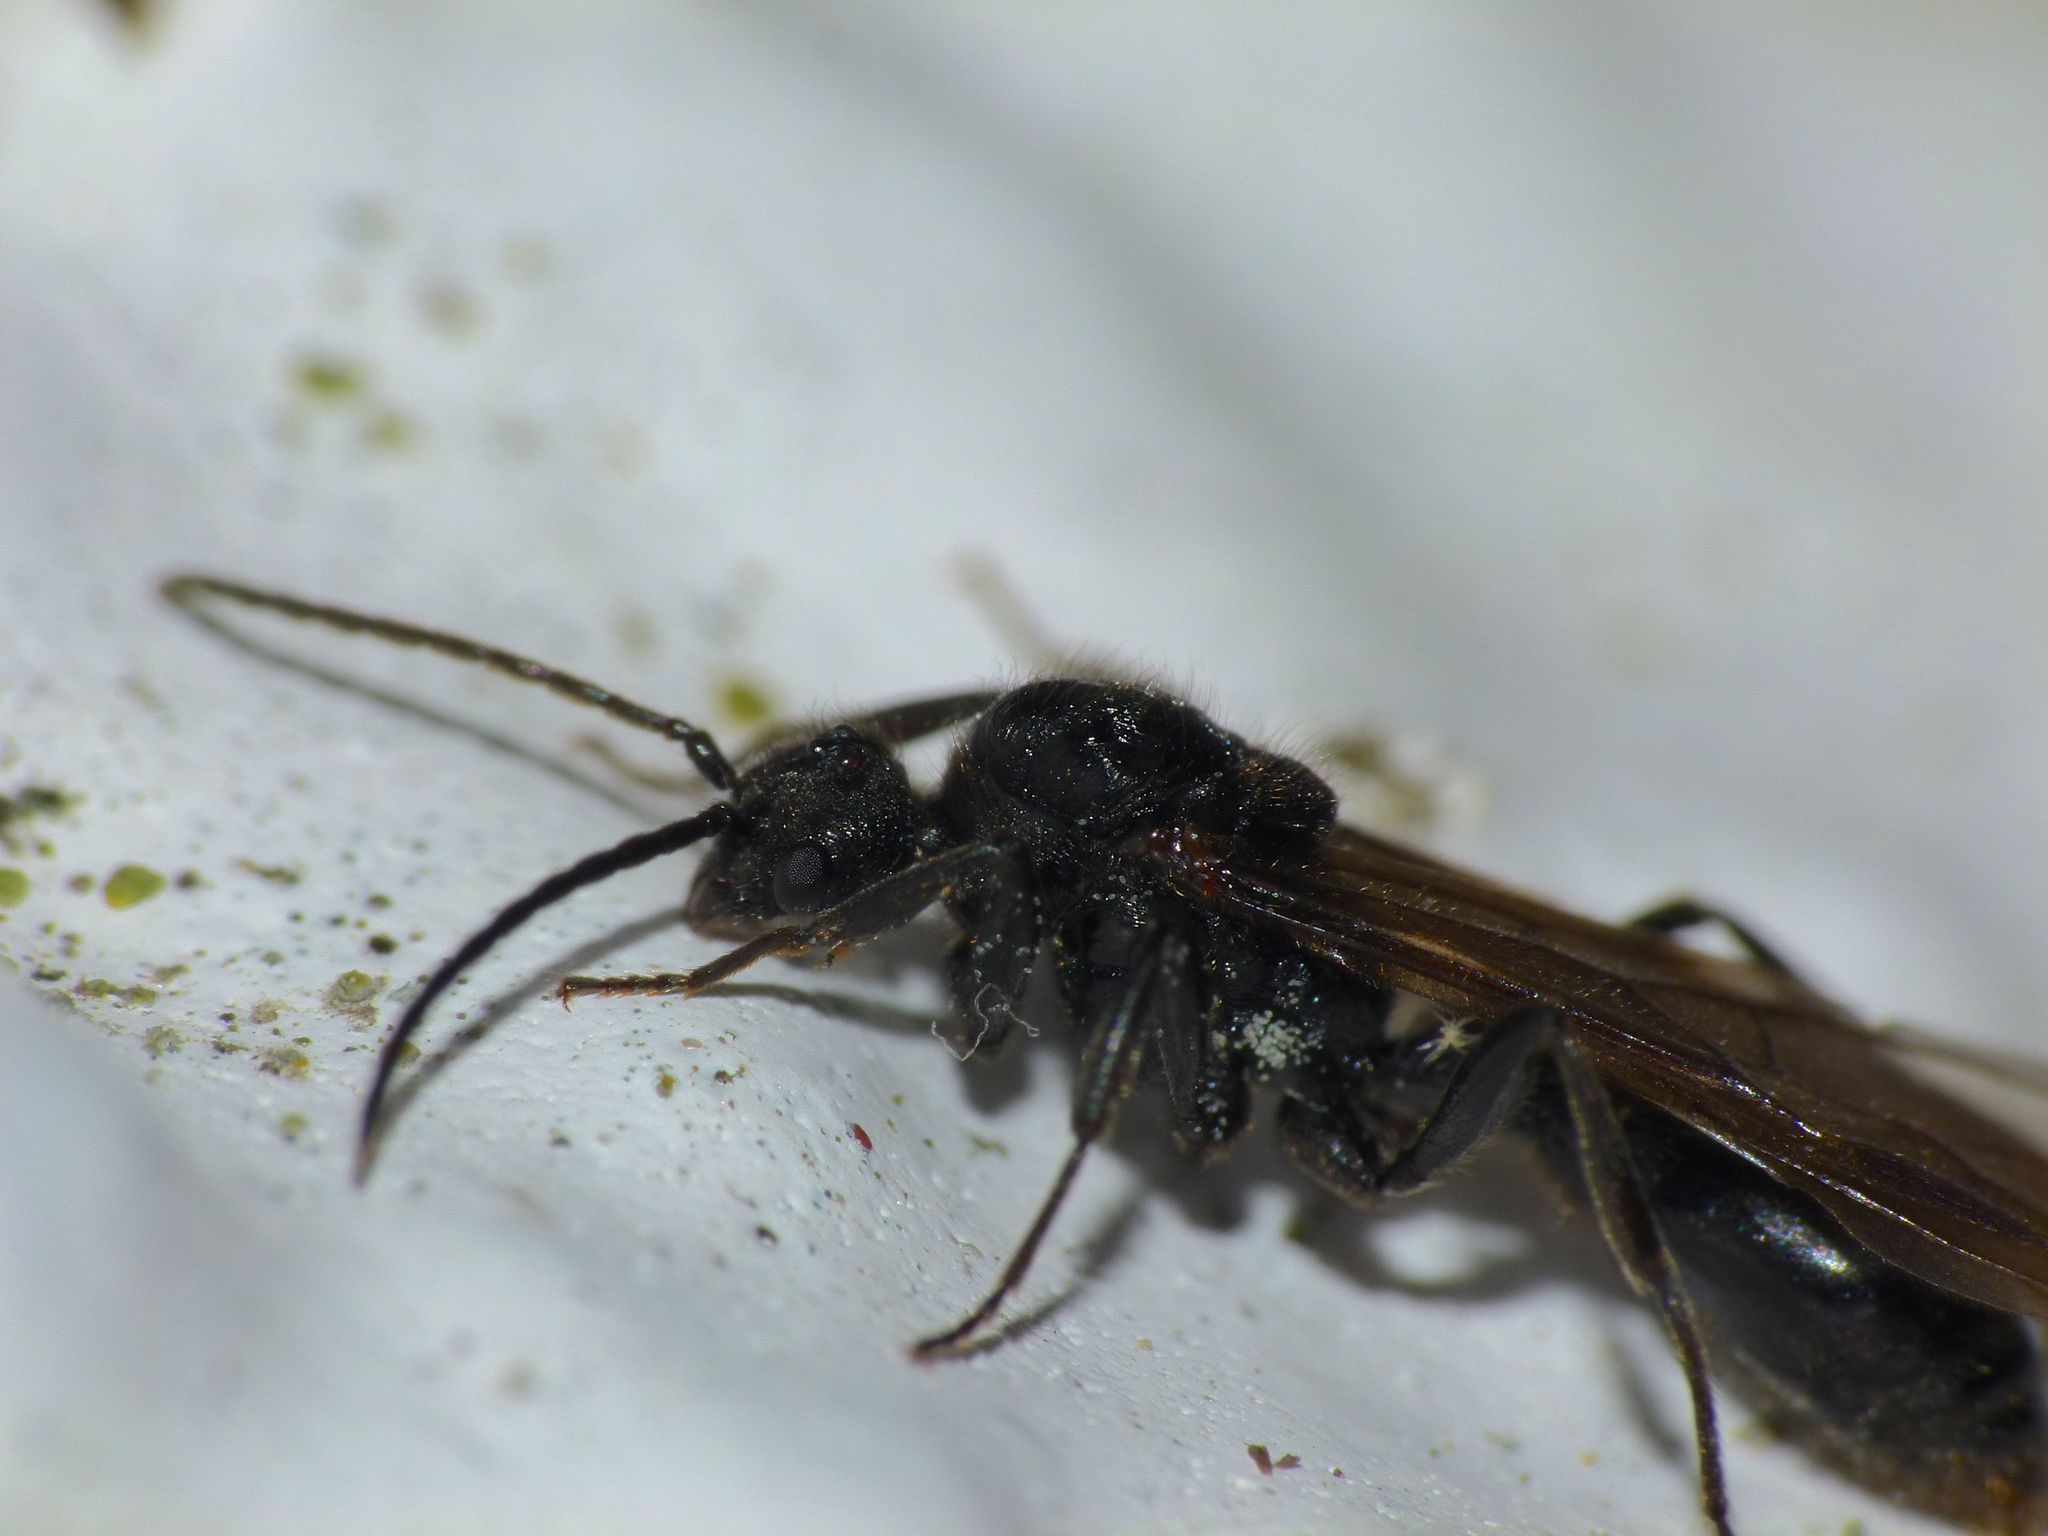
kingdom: Animalia
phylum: Arthropoda
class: Insecta
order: Hymenoptera
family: Formicidae
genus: Huberia
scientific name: Huberia striata
